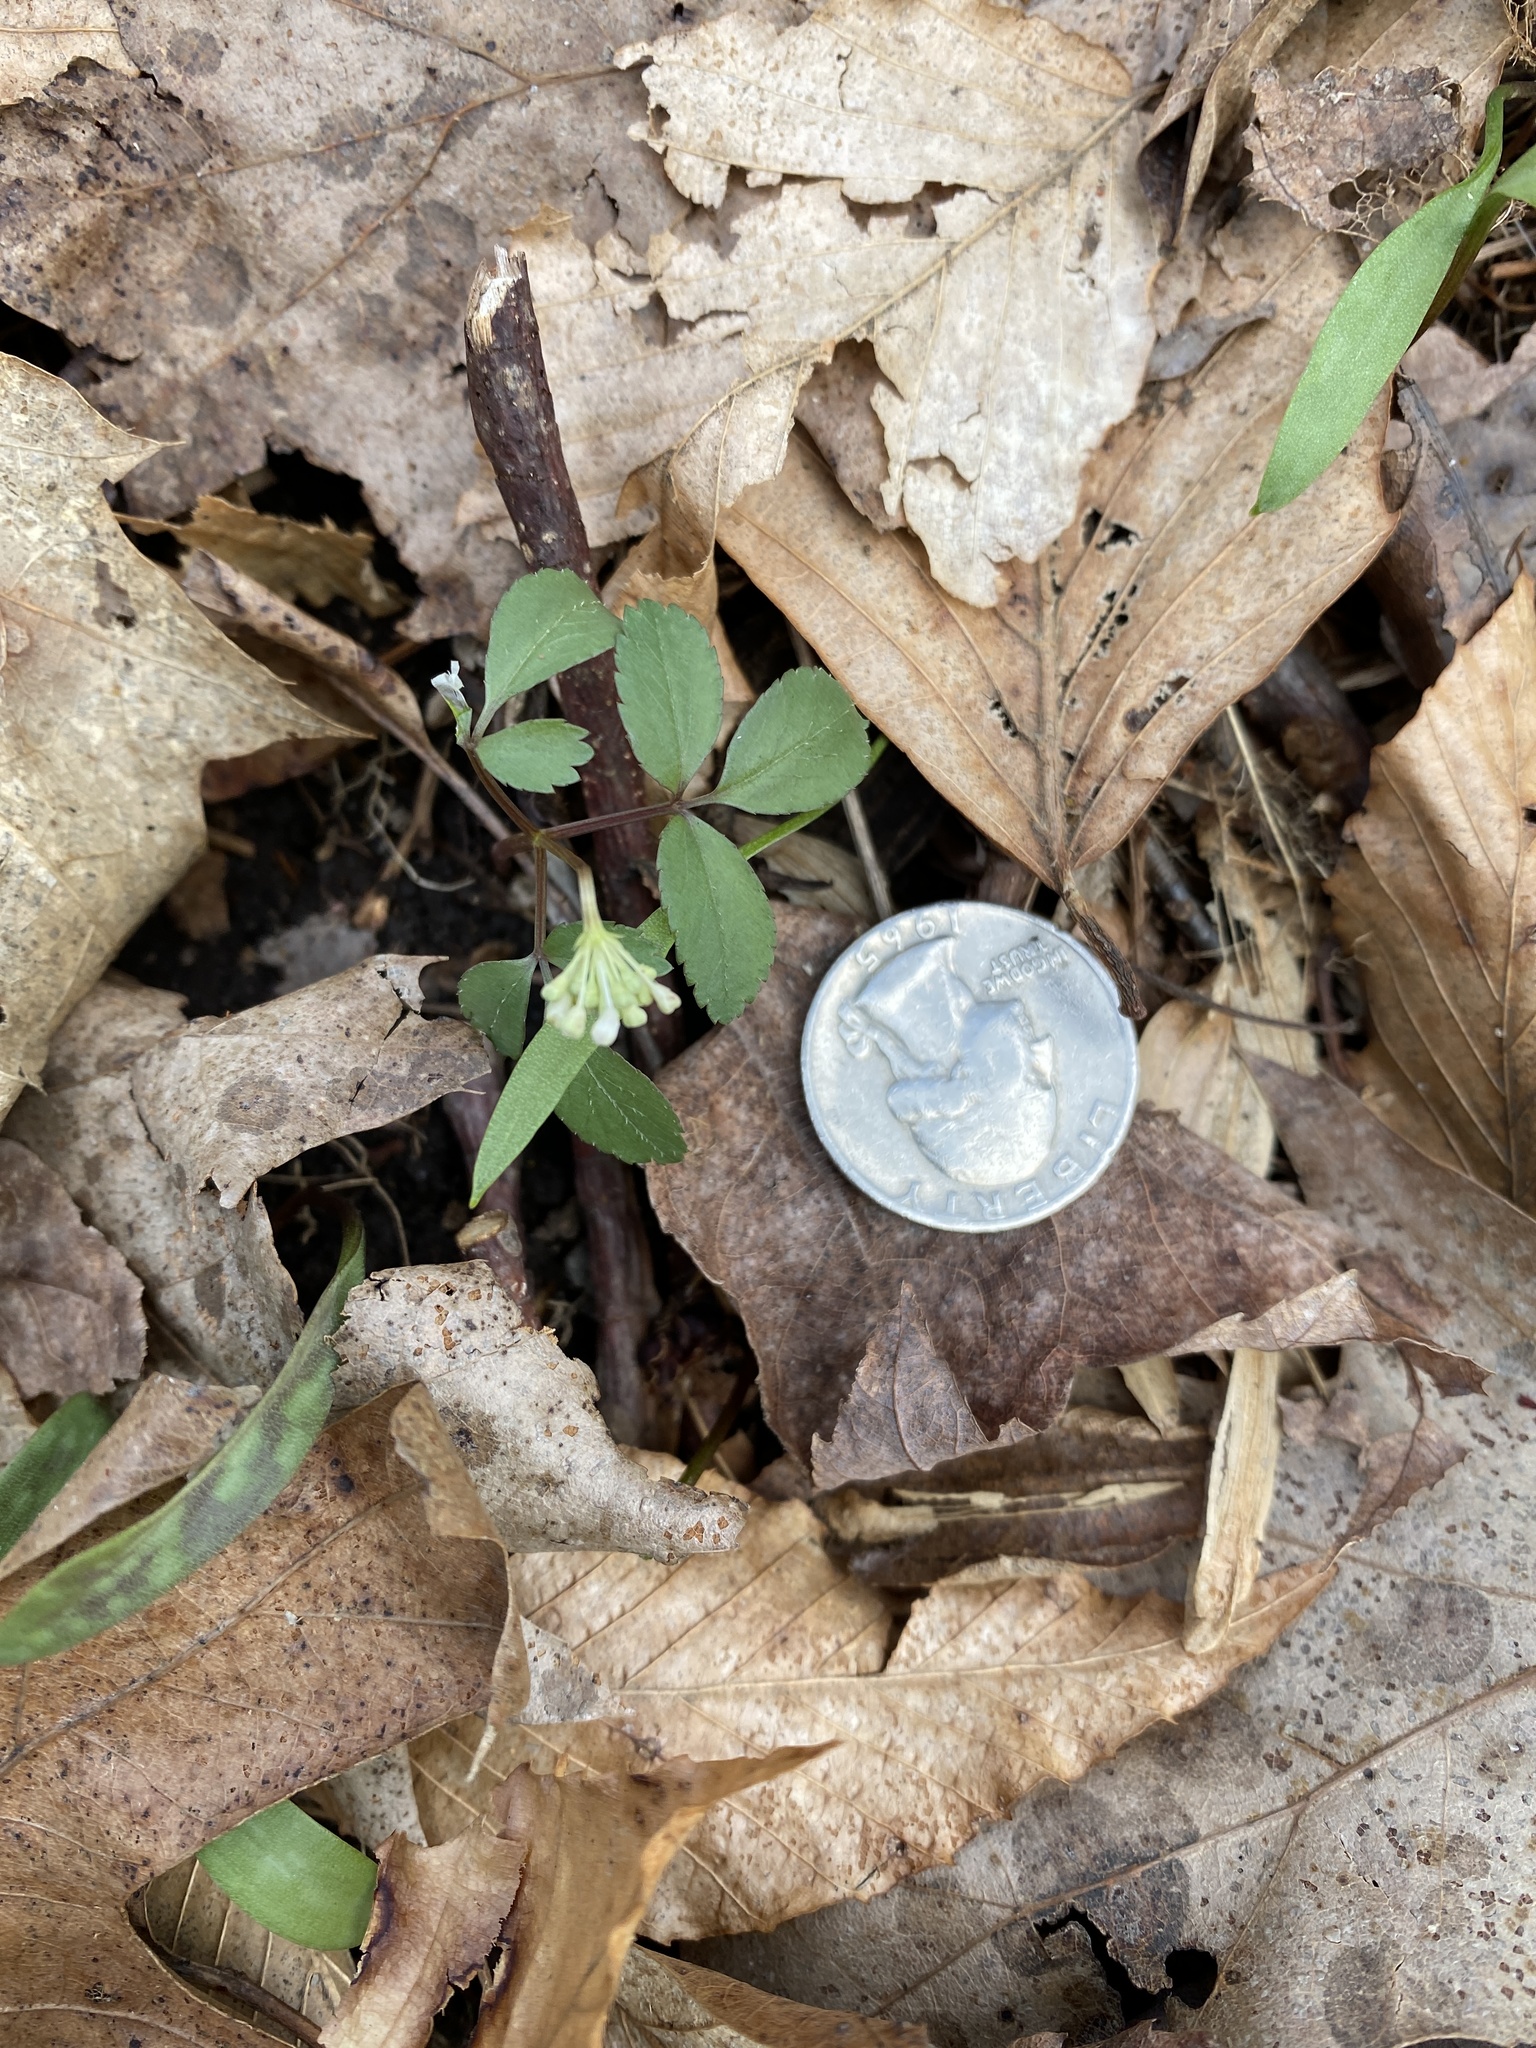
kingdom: Plantae
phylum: Tracheophyta
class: Magnoliopsida
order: Apiales
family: Araliaceae
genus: Panax
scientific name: Panax trifolius
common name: Dwarf ginseng
